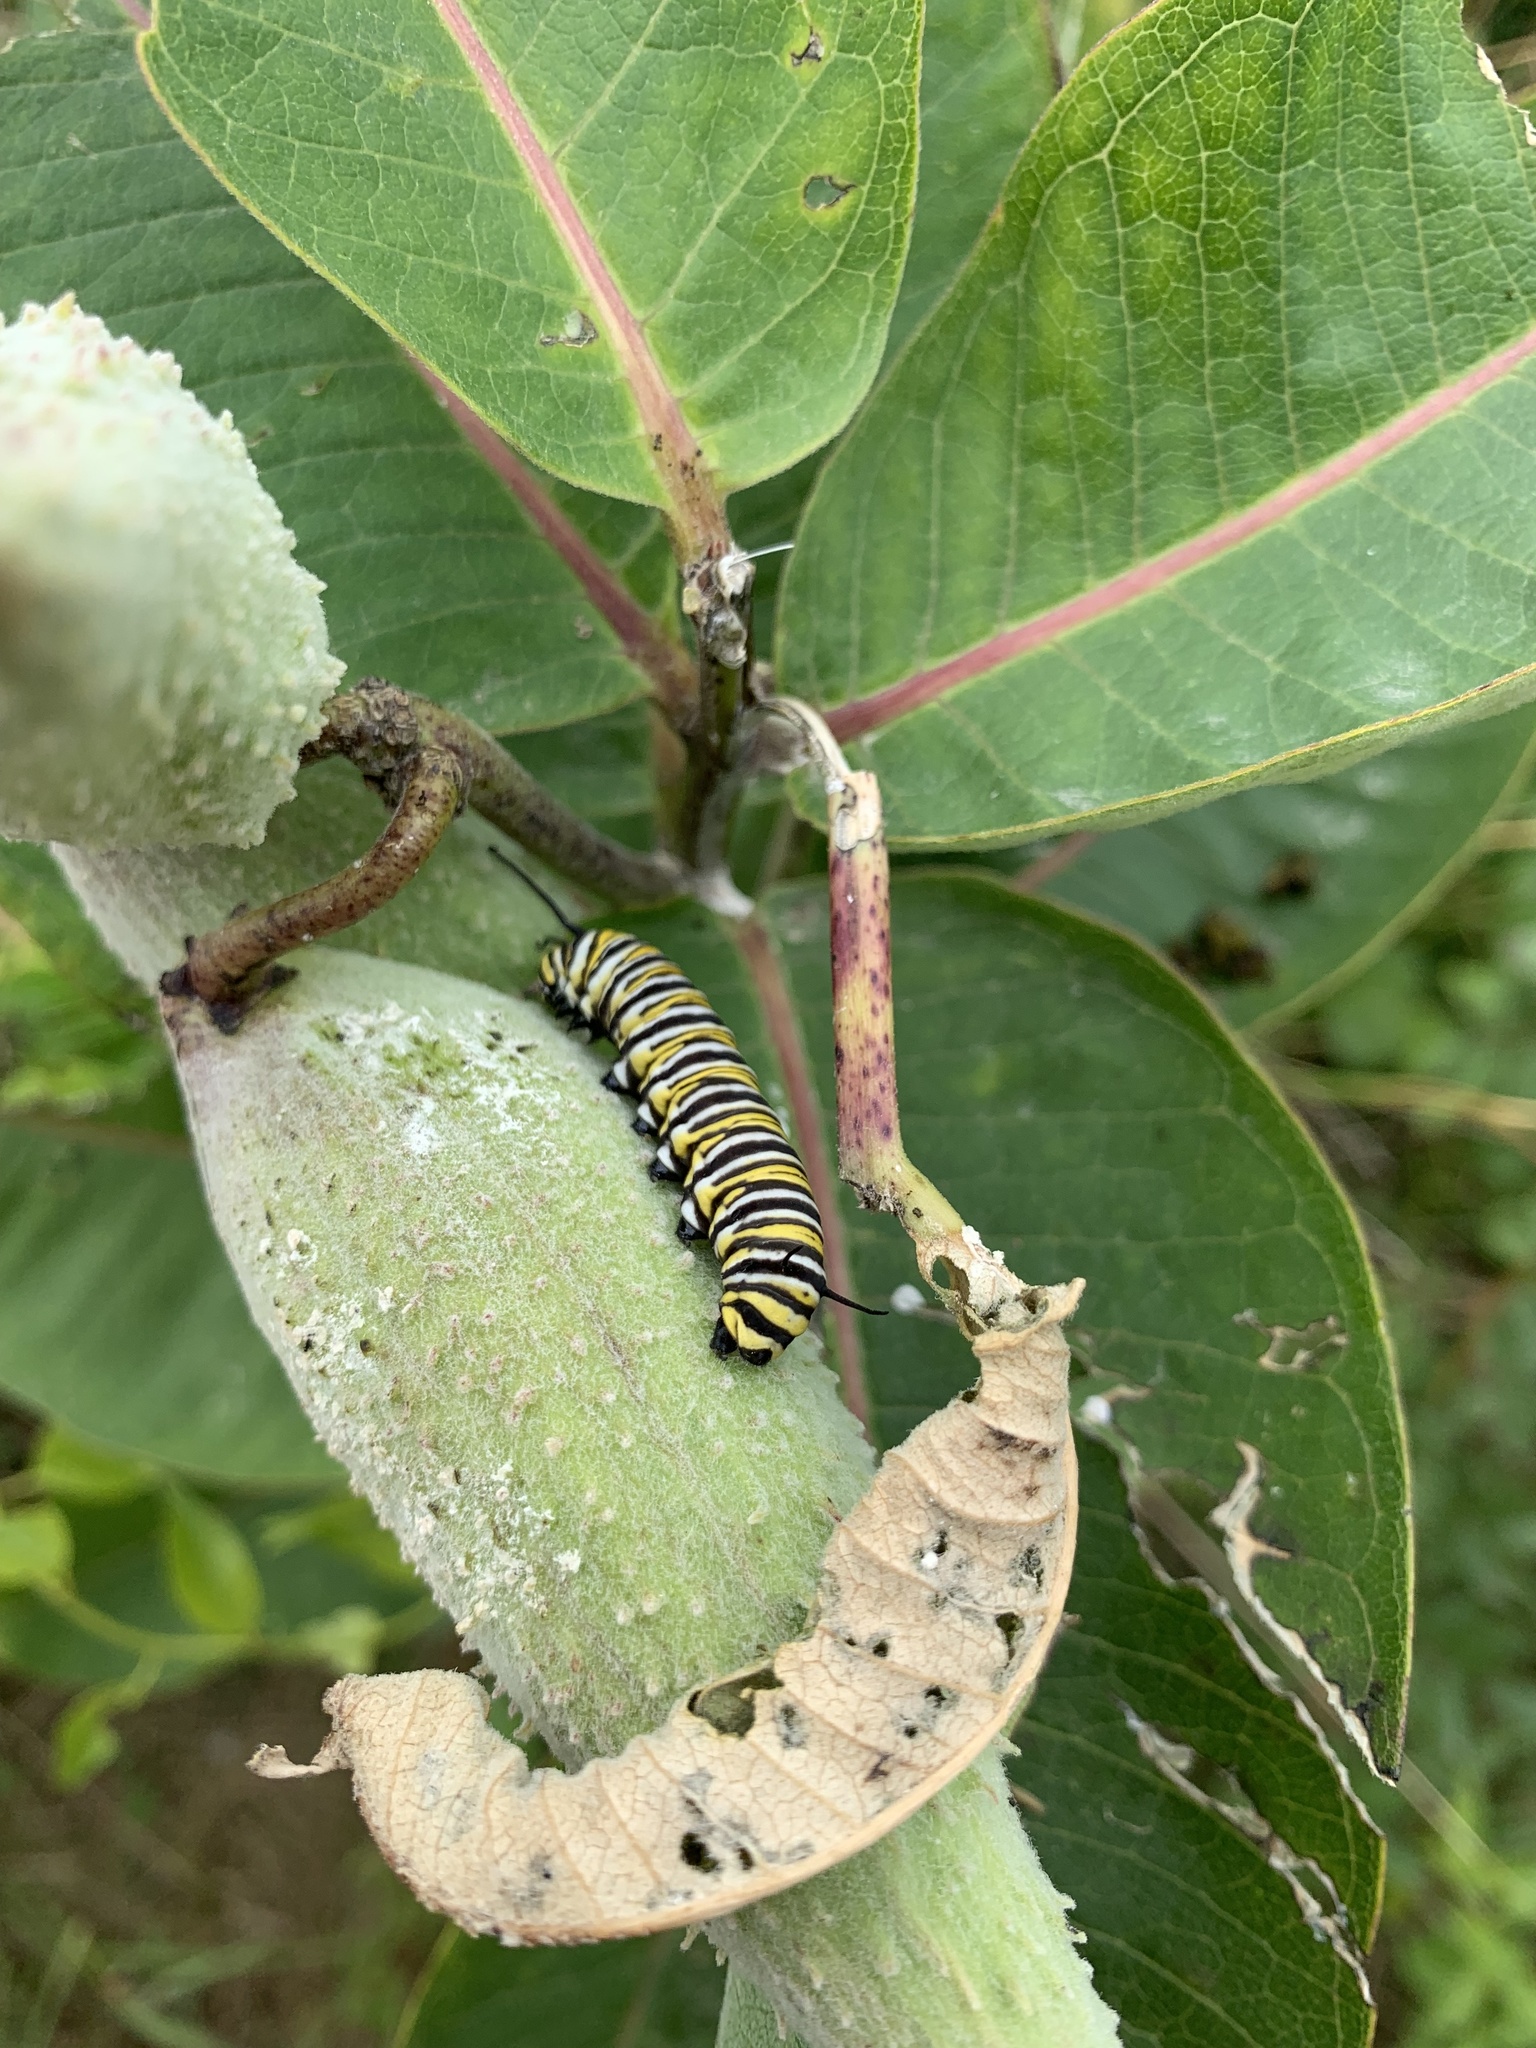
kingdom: Animalia
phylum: Arthropoda
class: Insecta
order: Lepidoptera
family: Nymphalidae
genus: Danaus
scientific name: Danaus plexippus
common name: Monarch
